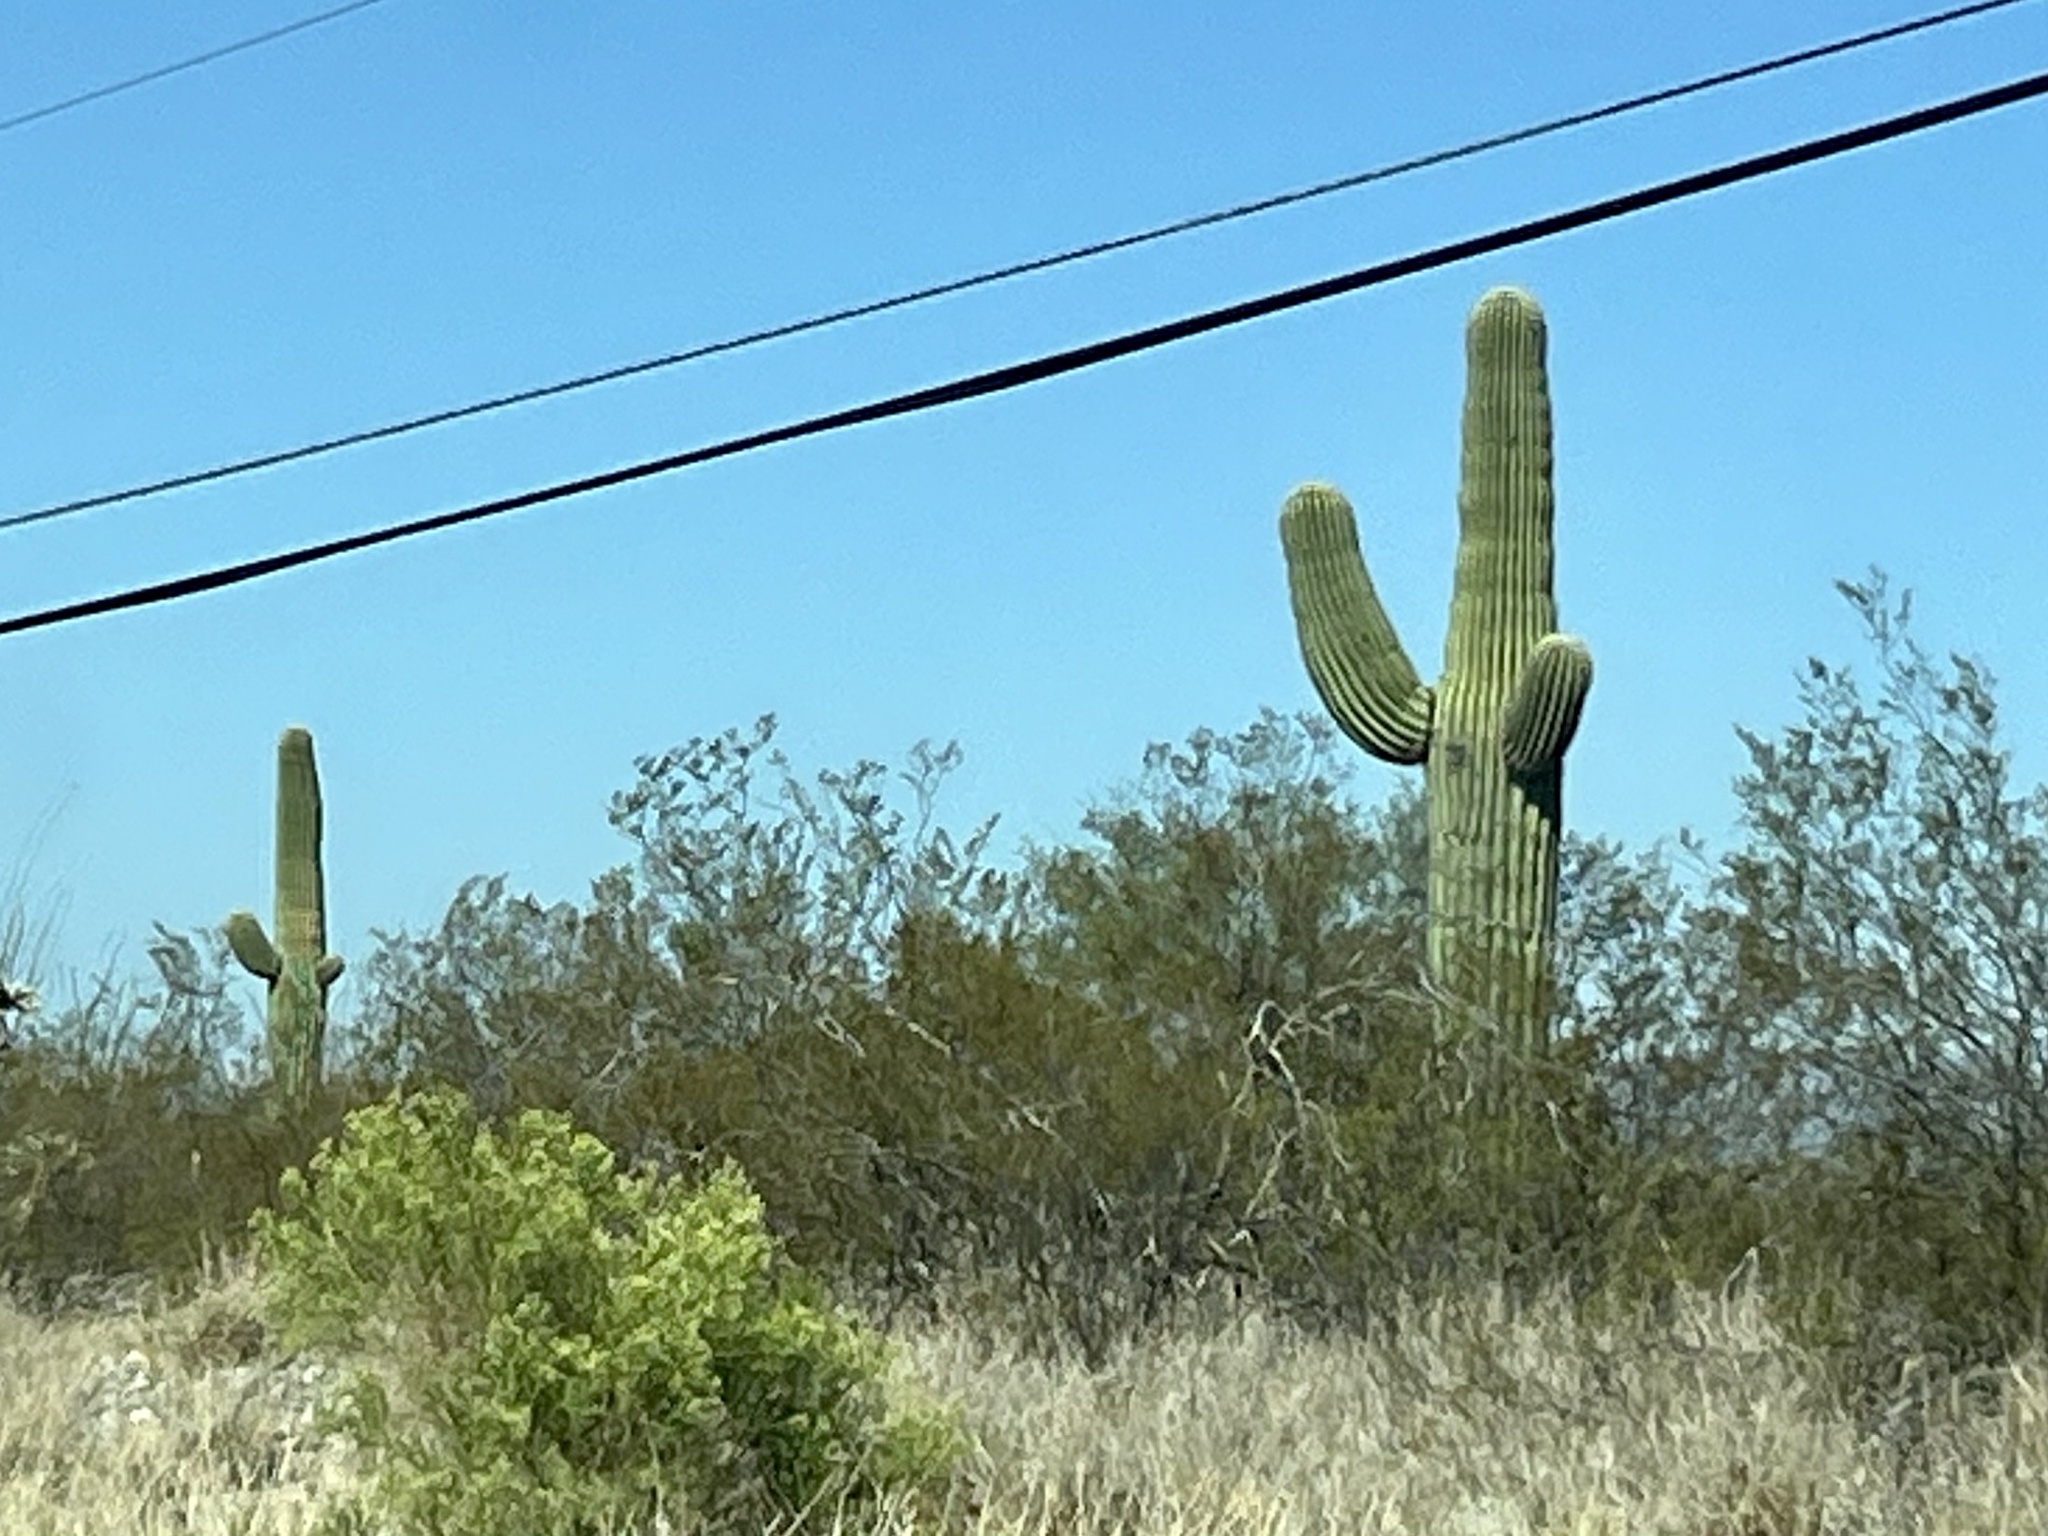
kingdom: Plantae
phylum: Tracheophyta
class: Magnoliopsida
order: Caryophyllales
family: Cactaceae
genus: Carnegiea
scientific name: Carnegiea gigantea
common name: Saguaro
